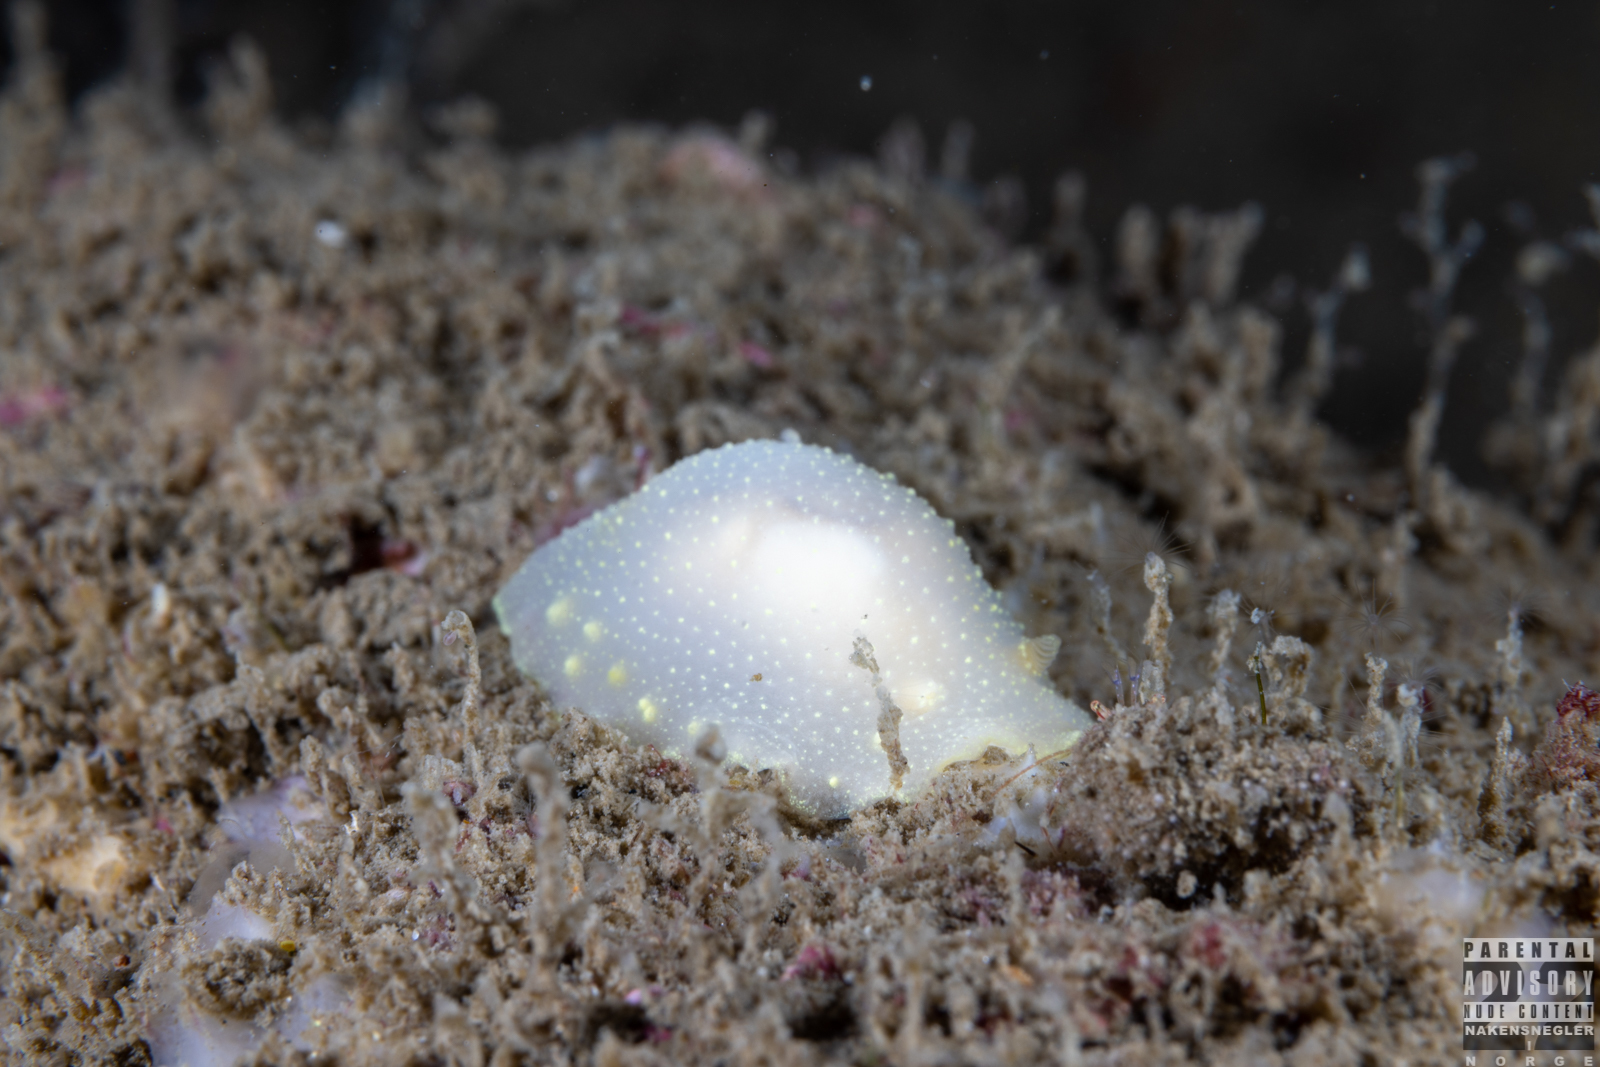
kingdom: Animalia
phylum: Mollusca
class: Gastropoda
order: Nudibranchia
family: Cadlinidae
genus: Cadlina
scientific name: Cadlina laevis
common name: White atlantic cadlina
